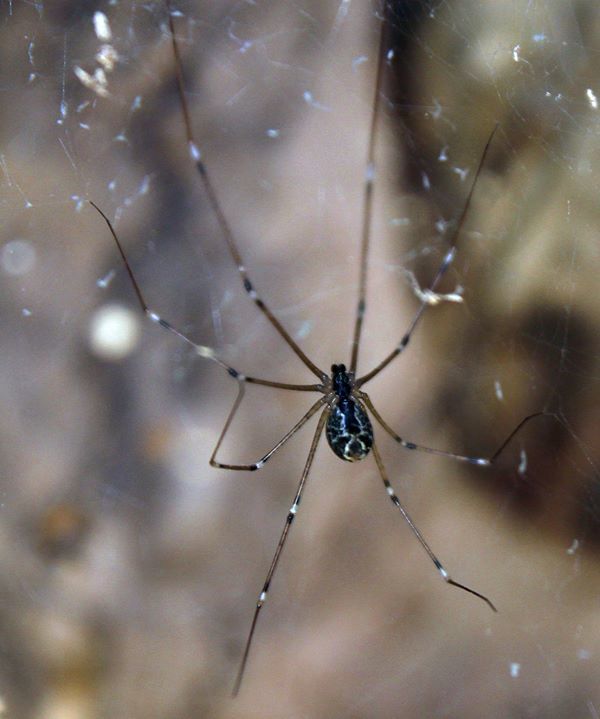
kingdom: Animalia
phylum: Arthropoda
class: Arachnida
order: Araneae
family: Pholcidae
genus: Holocnemus
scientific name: Holocnemus pluchei
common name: Marbled cellar spider
